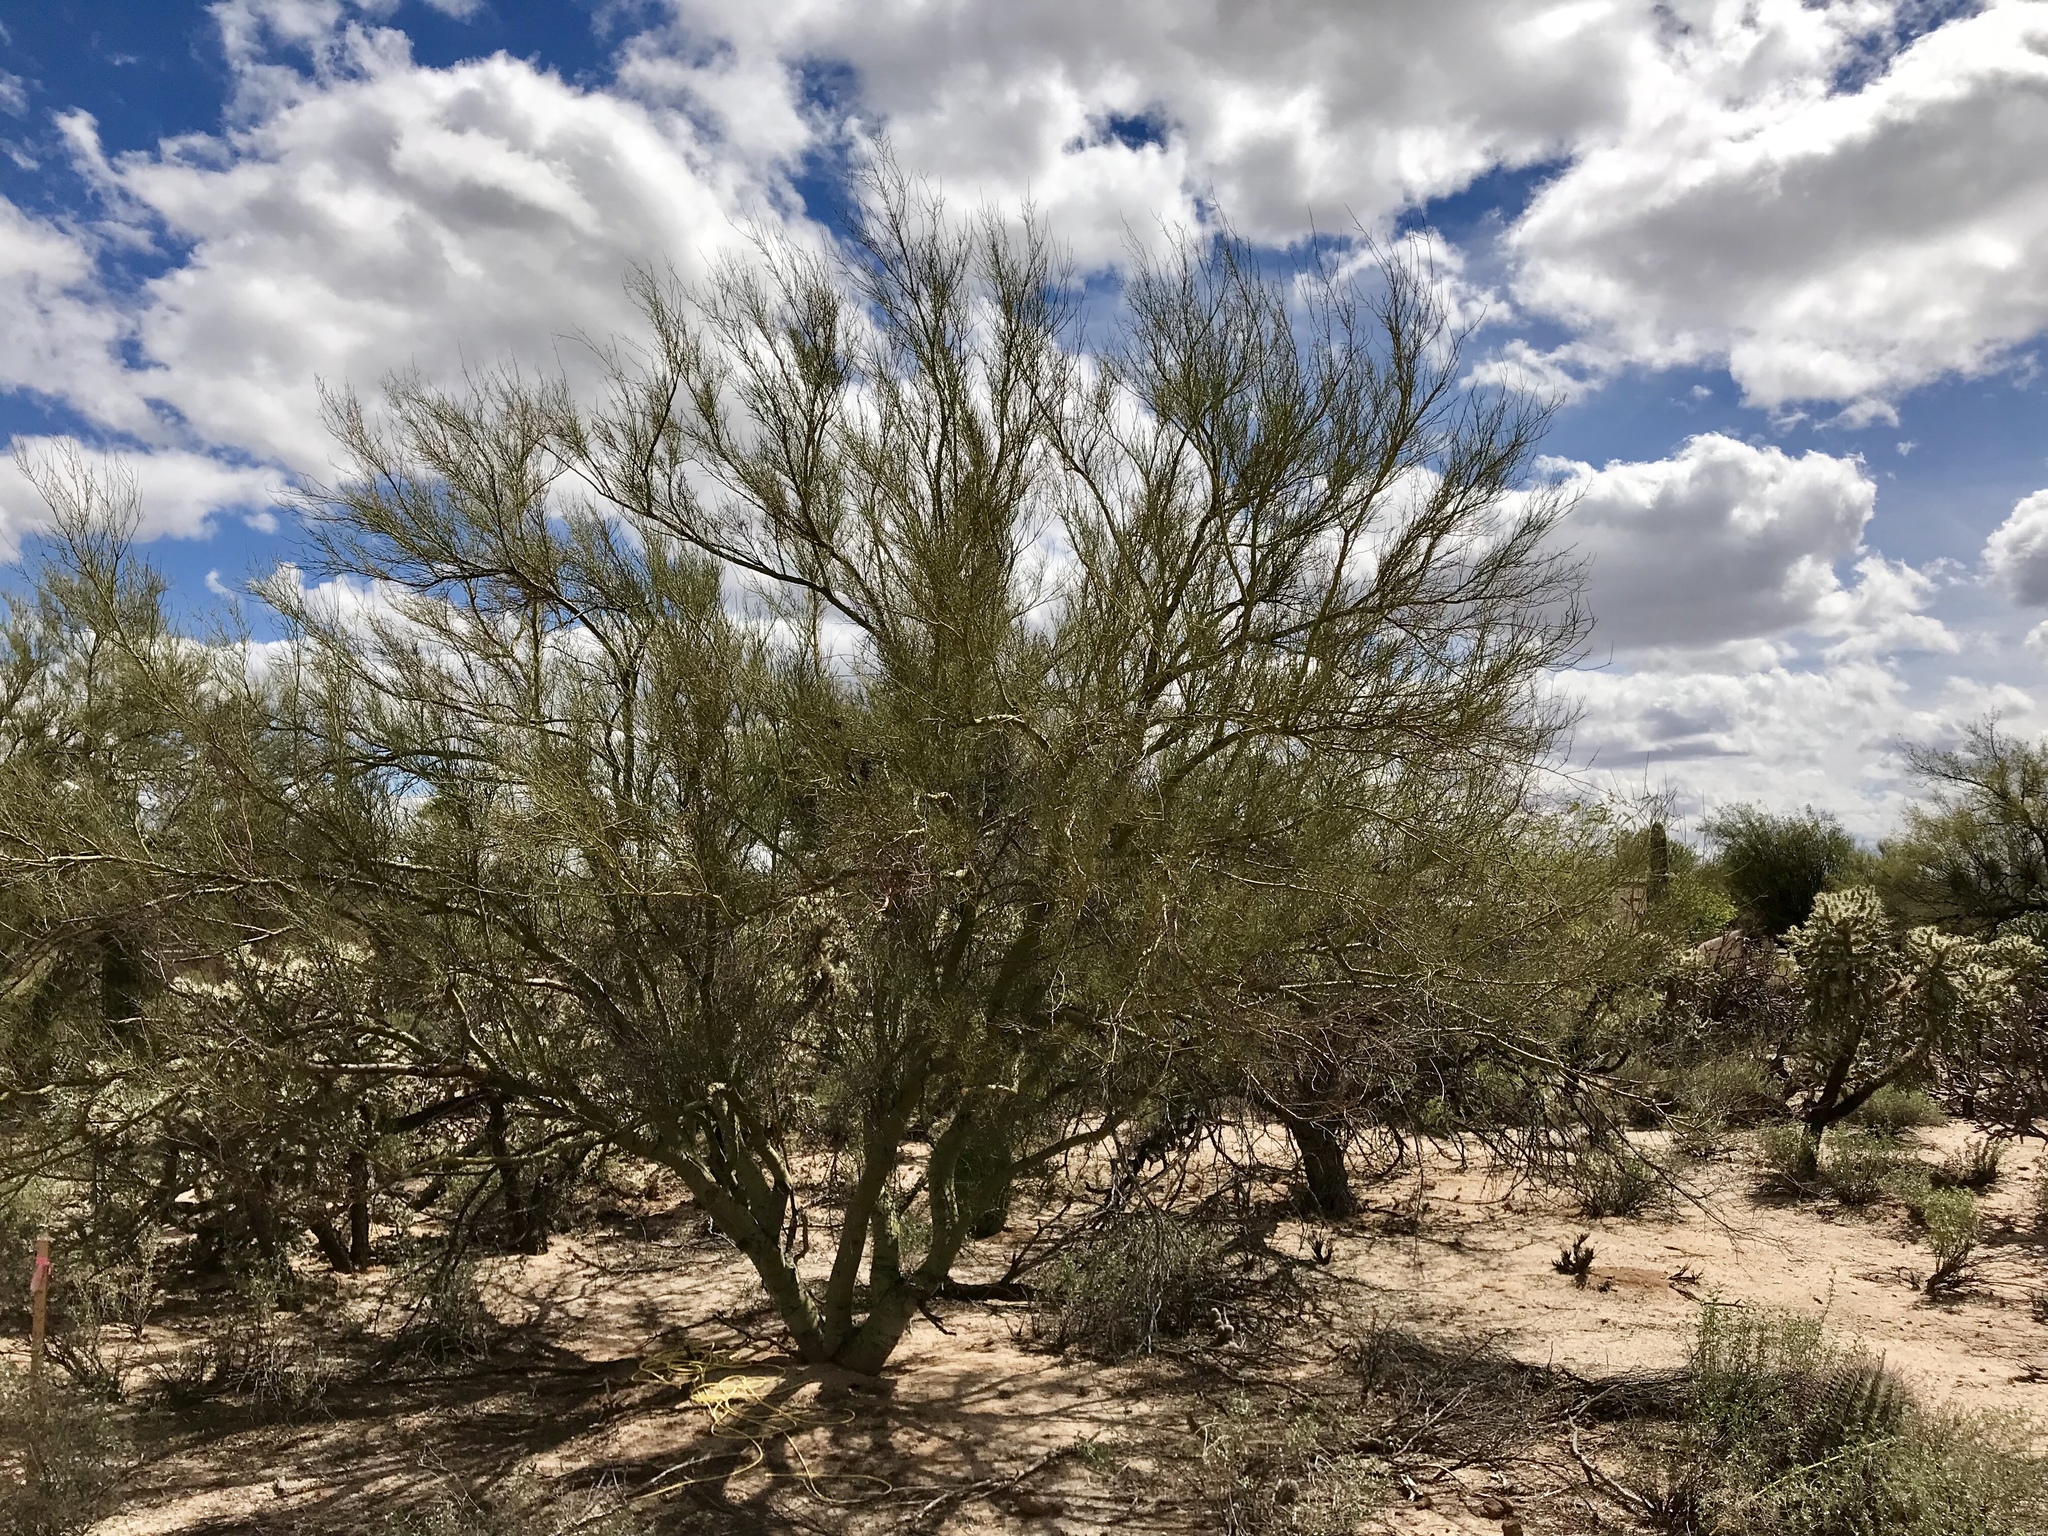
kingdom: Plantae
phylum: Tracheophyta
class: Magnoliopsida
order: Fabales
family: Fabaceae
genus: Parkinsonia
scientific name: Parkinsonia microphylla
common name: Yellow paloverde
